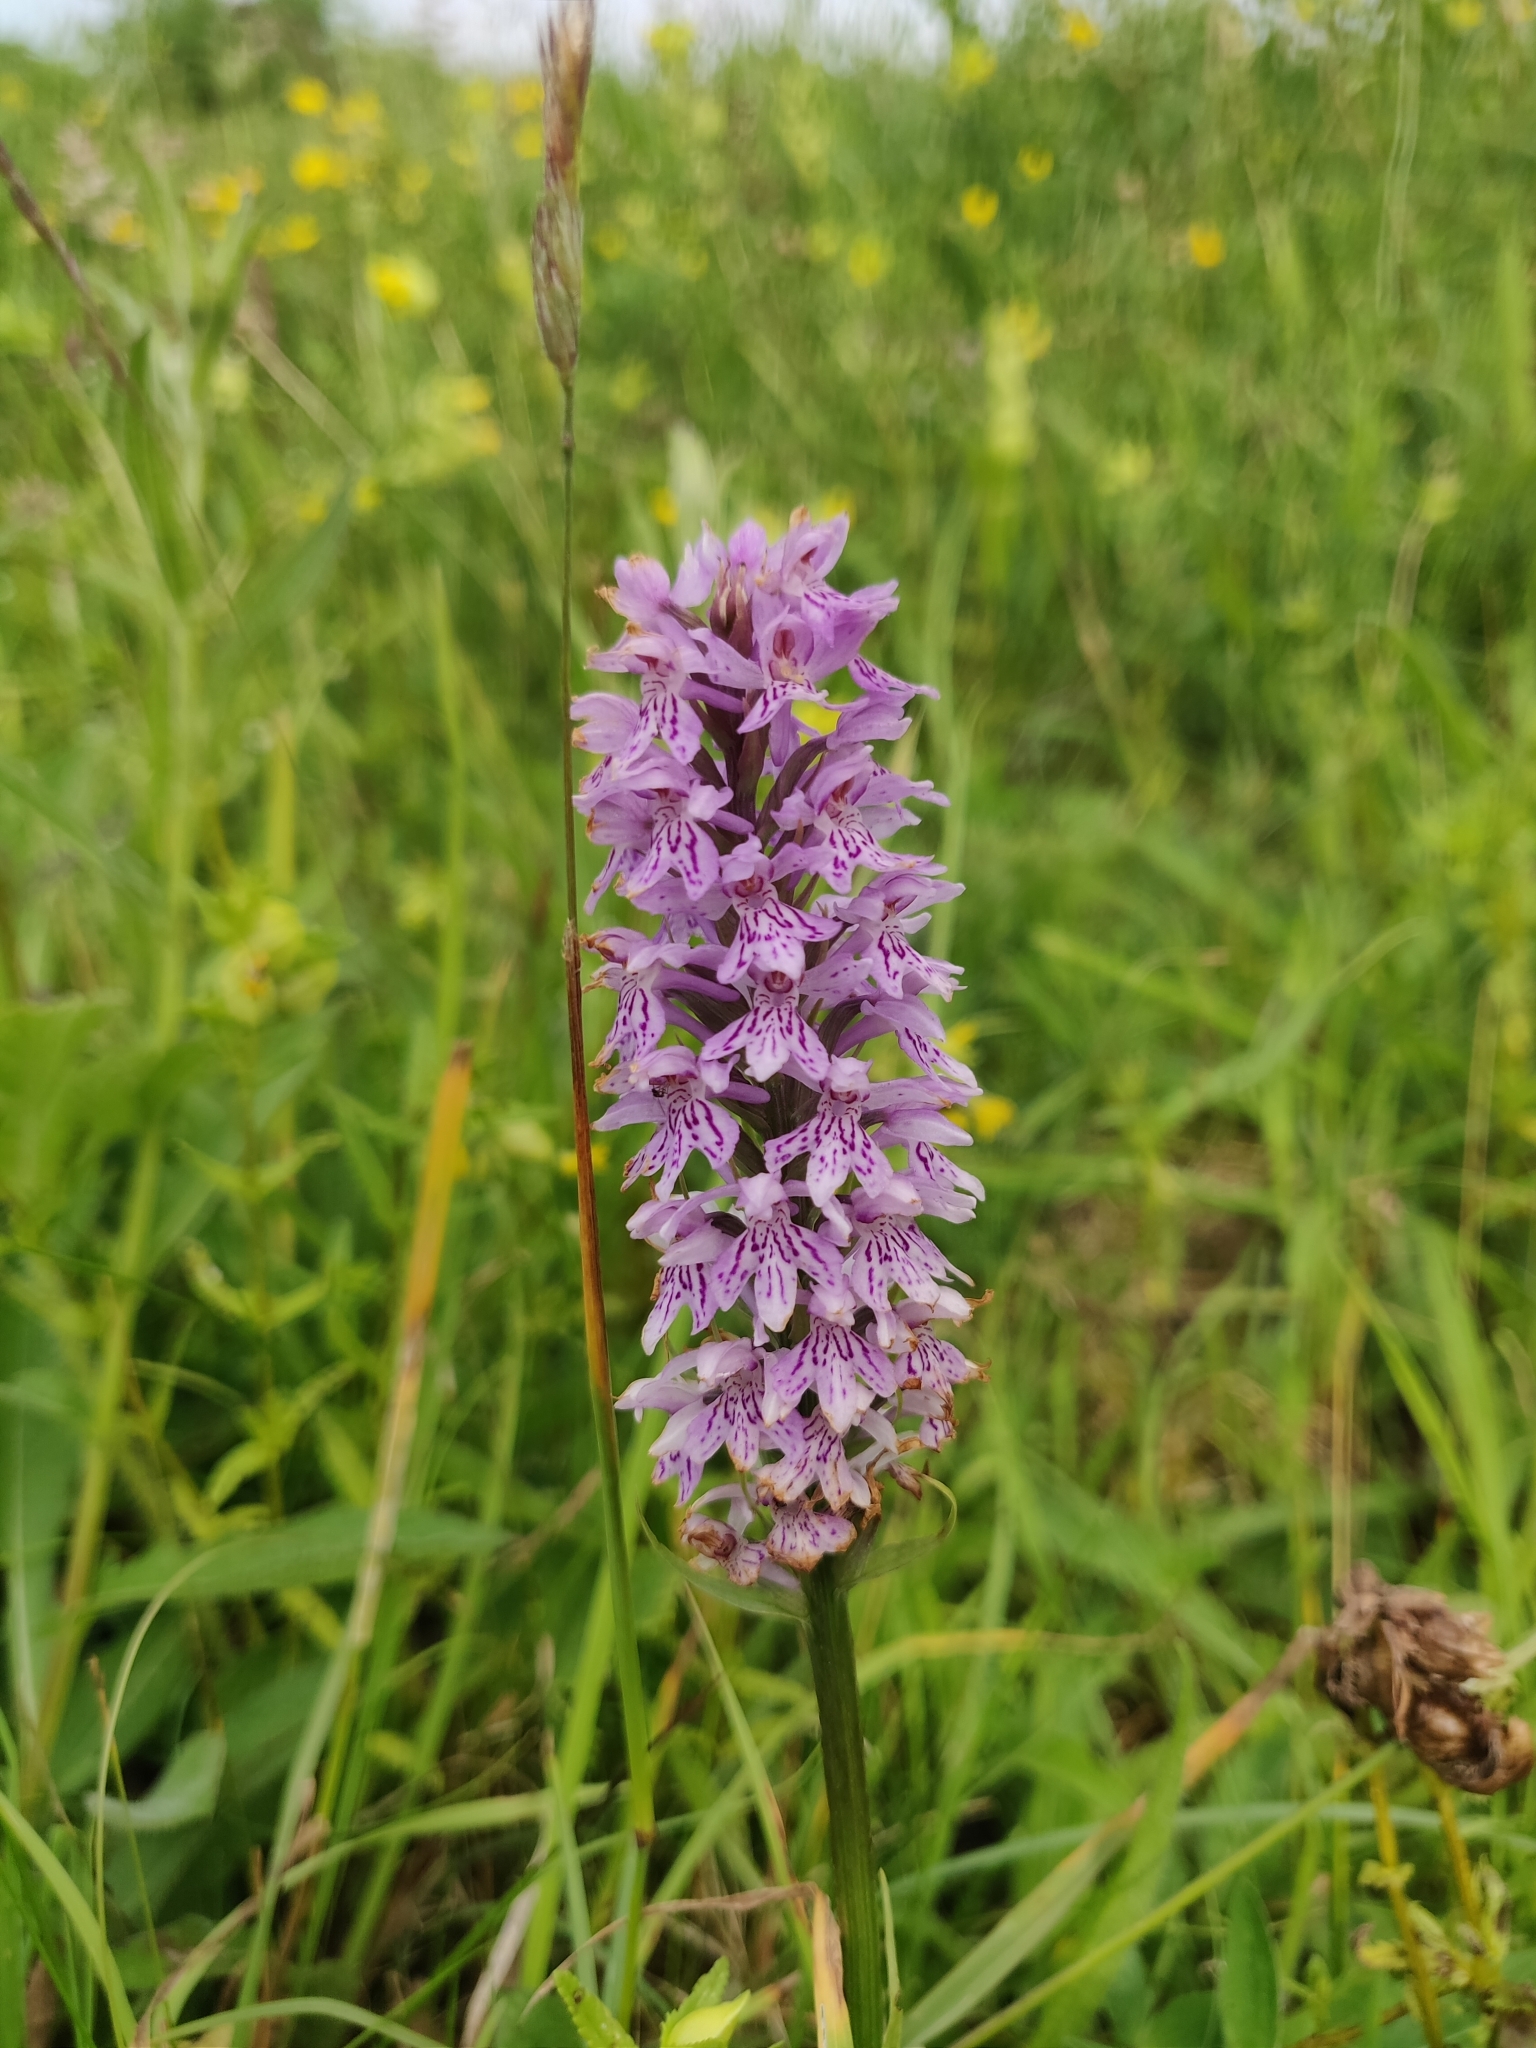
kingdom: Plantae
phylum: Tracheophyta
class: Liliopsida
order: Asparagales
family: Orchidaceae
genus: Dactylorhiza
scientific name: Dactylorhiza maculata
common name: Heath spotted-orchid
